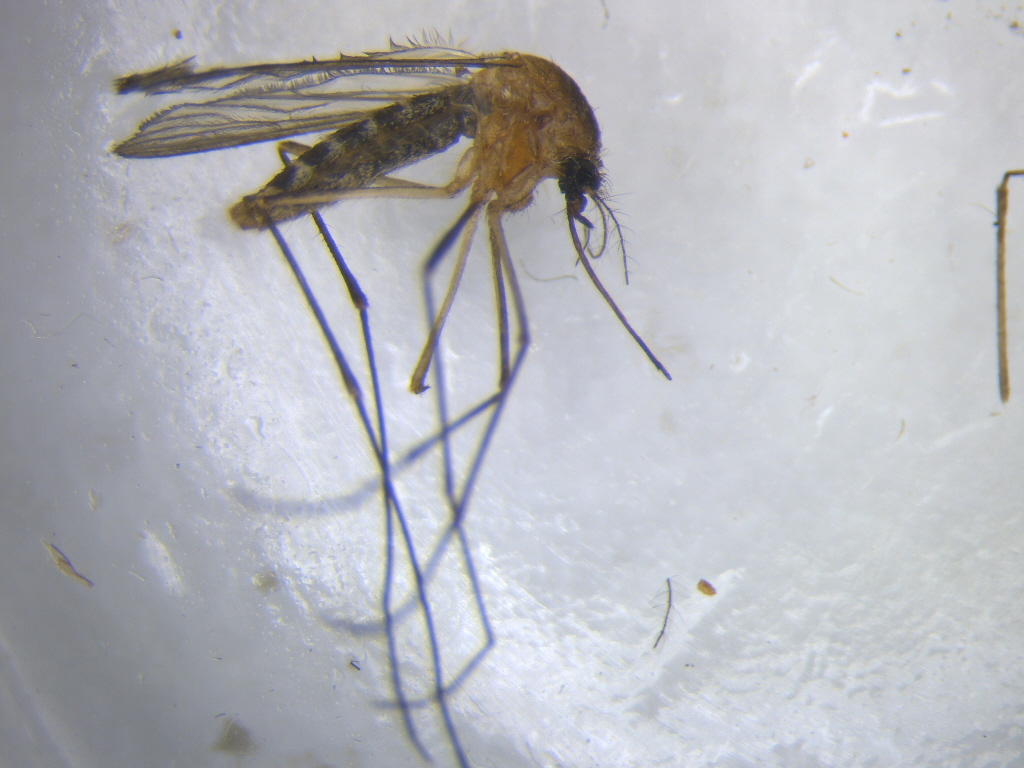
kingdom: Animalia
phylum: Arthropoda
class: Insecta
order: Diptera
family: Culicidae
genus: Culex
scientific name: Culex quinquefasciatus
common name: Southern house mosquito
